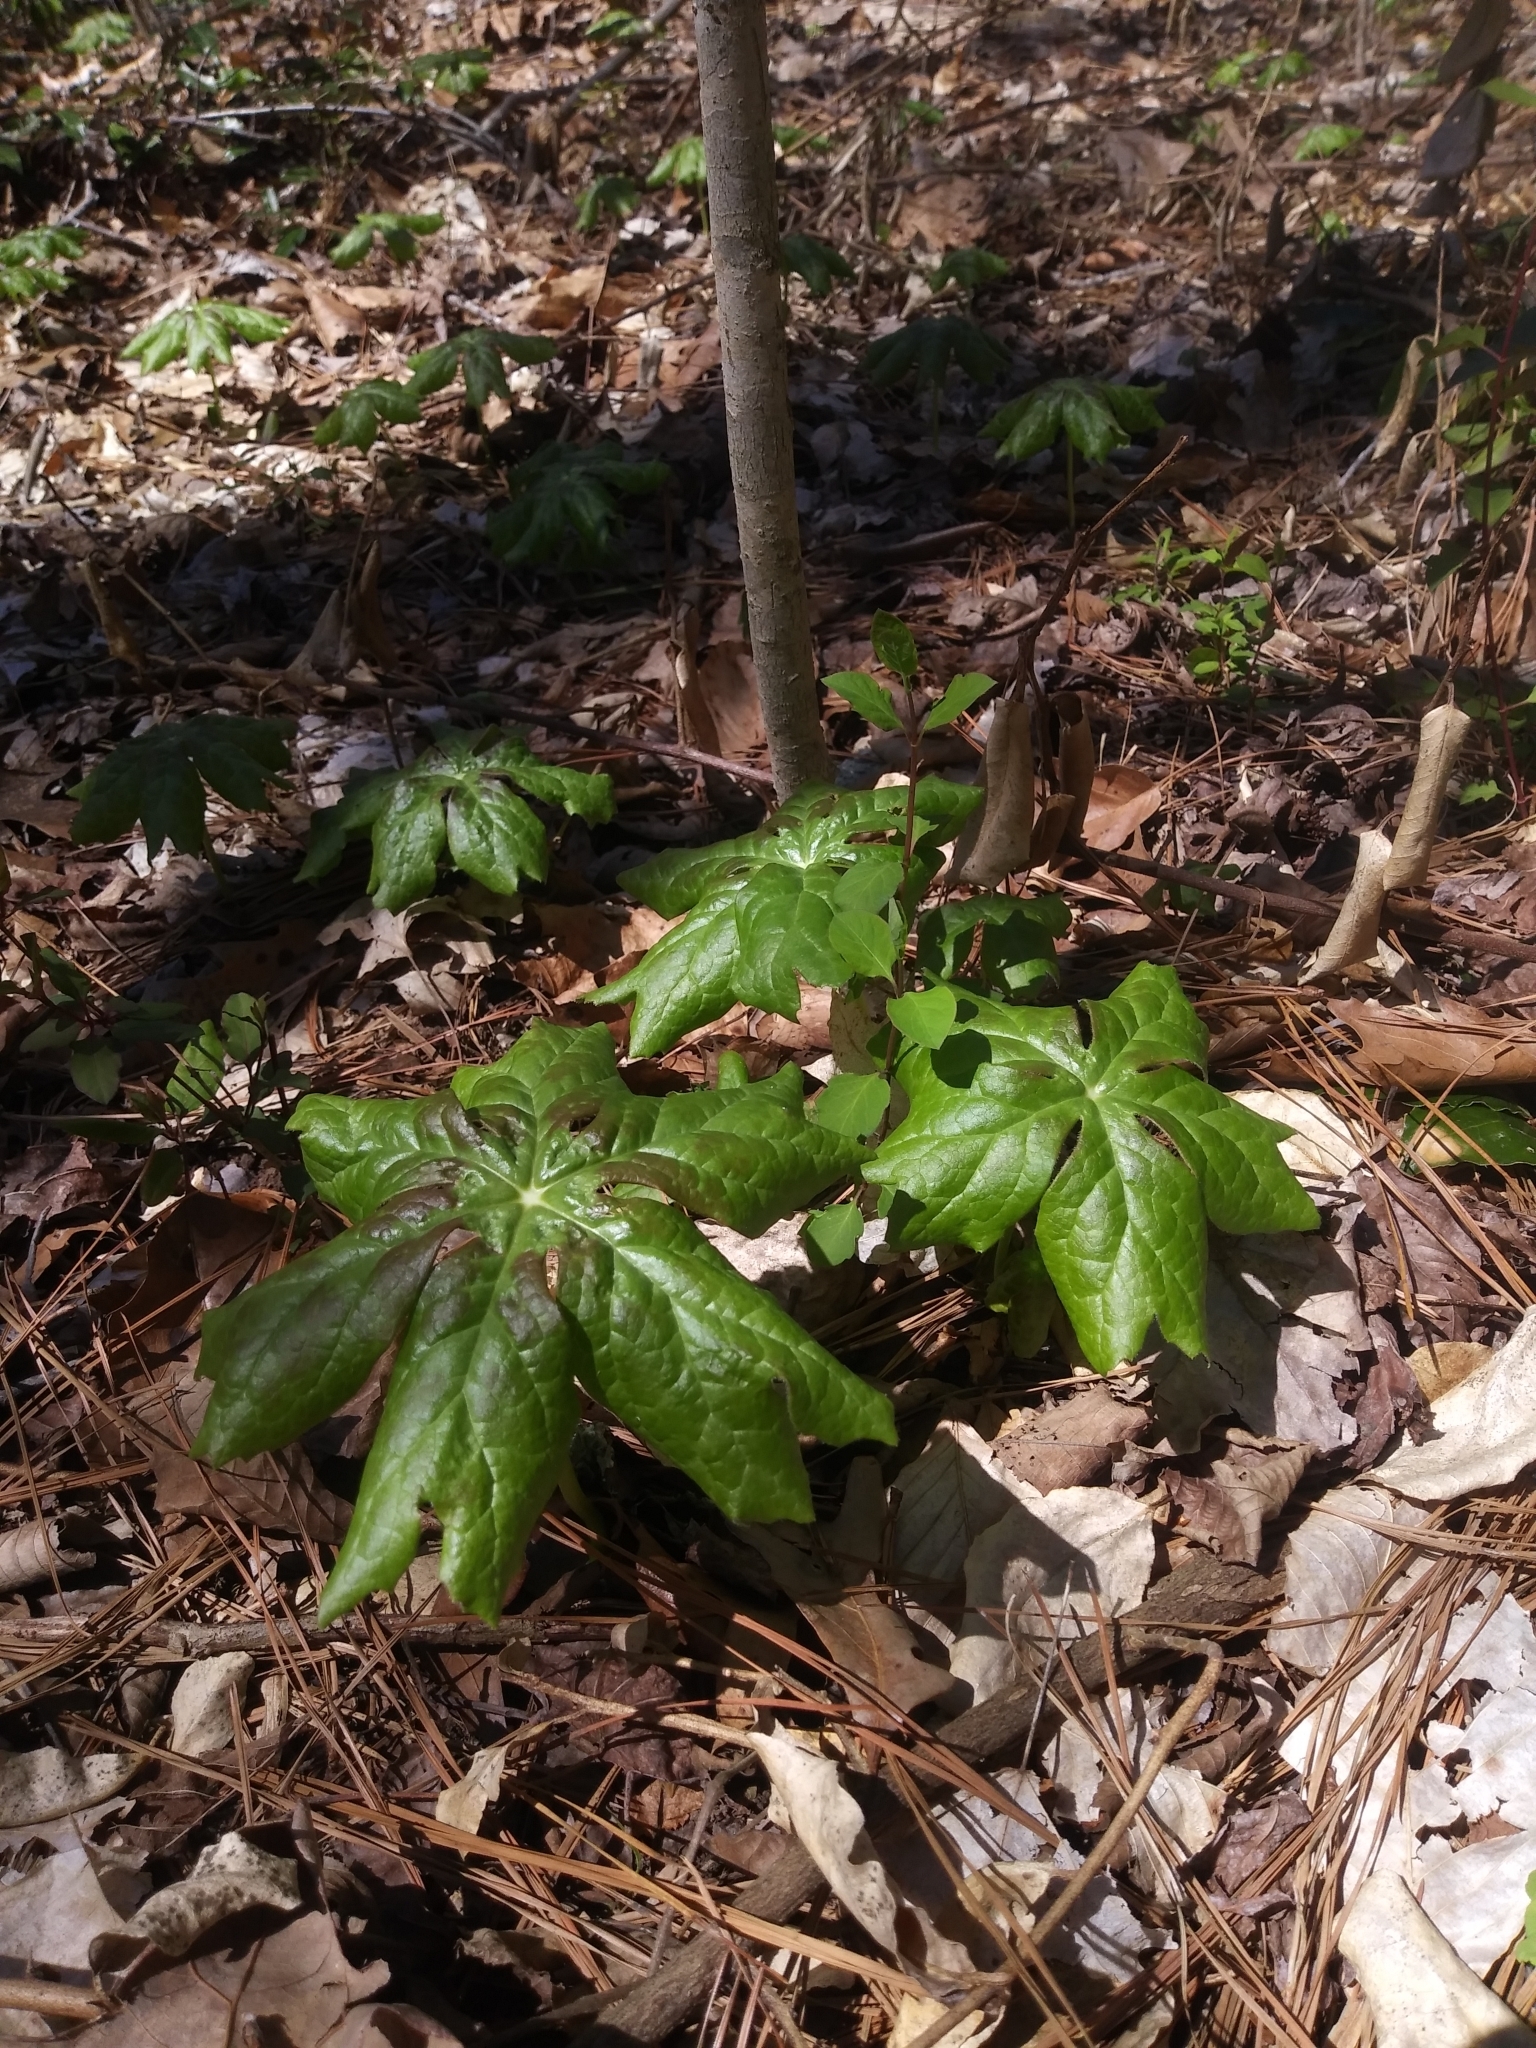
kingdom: Plantae
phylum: Tracheophyta
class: Magnoliopsida
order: Ranunculales
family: Berberidaceae
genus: Podophyllum
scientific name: Podophyllum peltatum
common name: Wild mandrake
